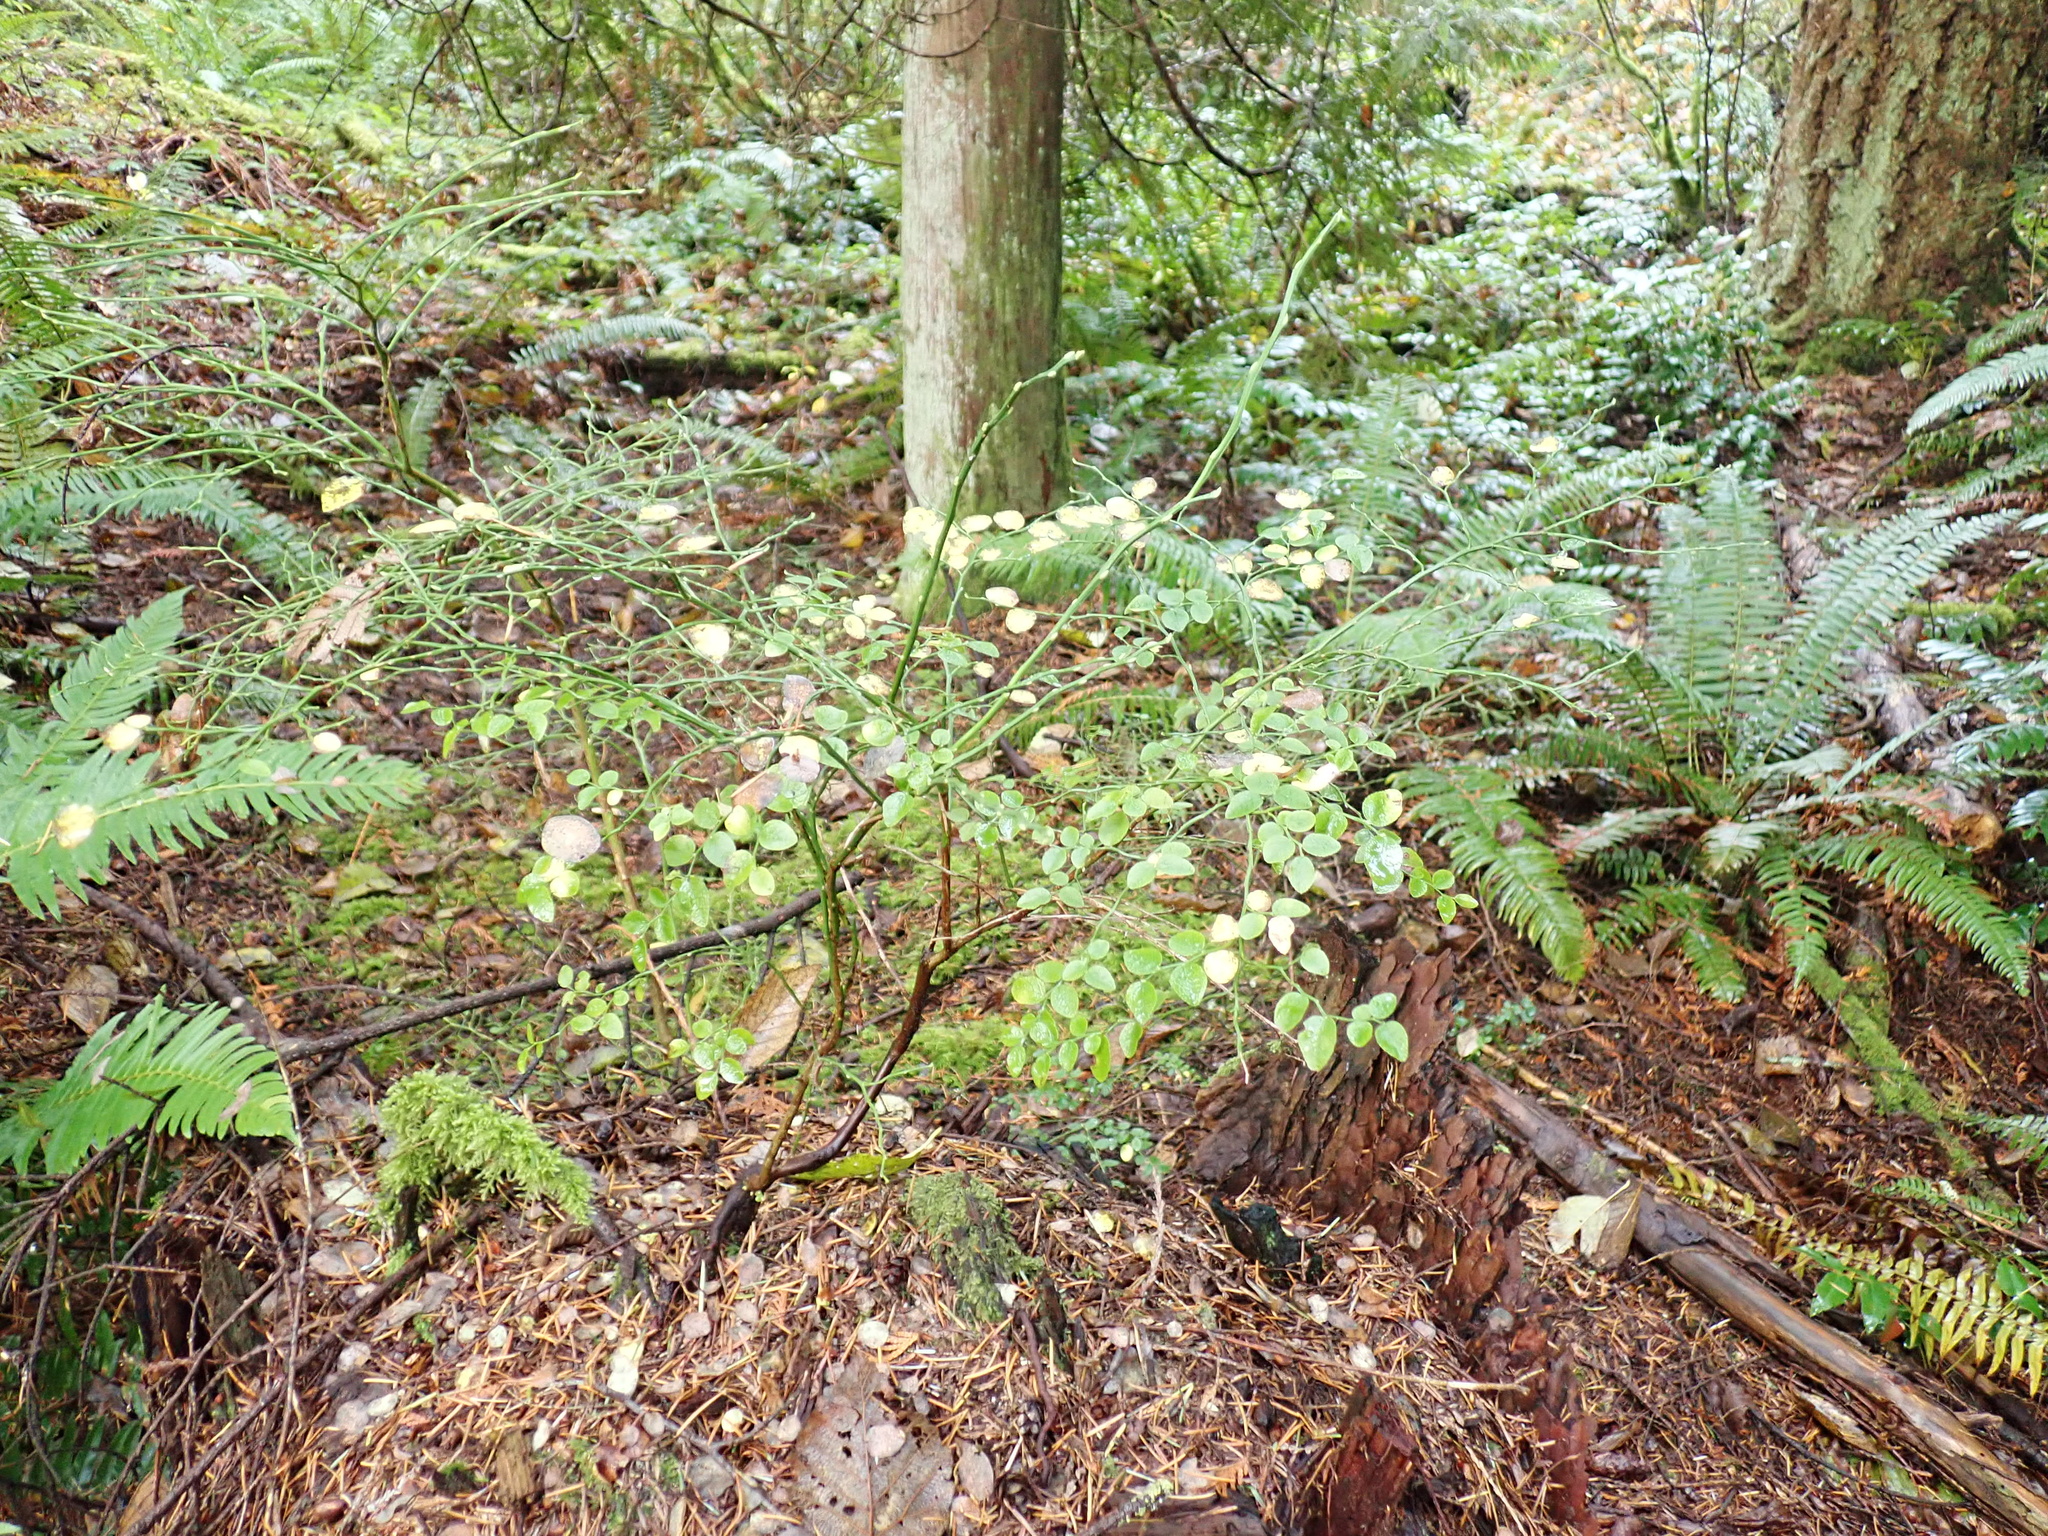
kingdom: Plantae
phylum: Tracheophyta
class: Magnoliopsida
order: Ericales
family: Ericaceae
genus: Vaccinium
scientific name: Vaccinium parvifolium
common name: Red-huckleberry
